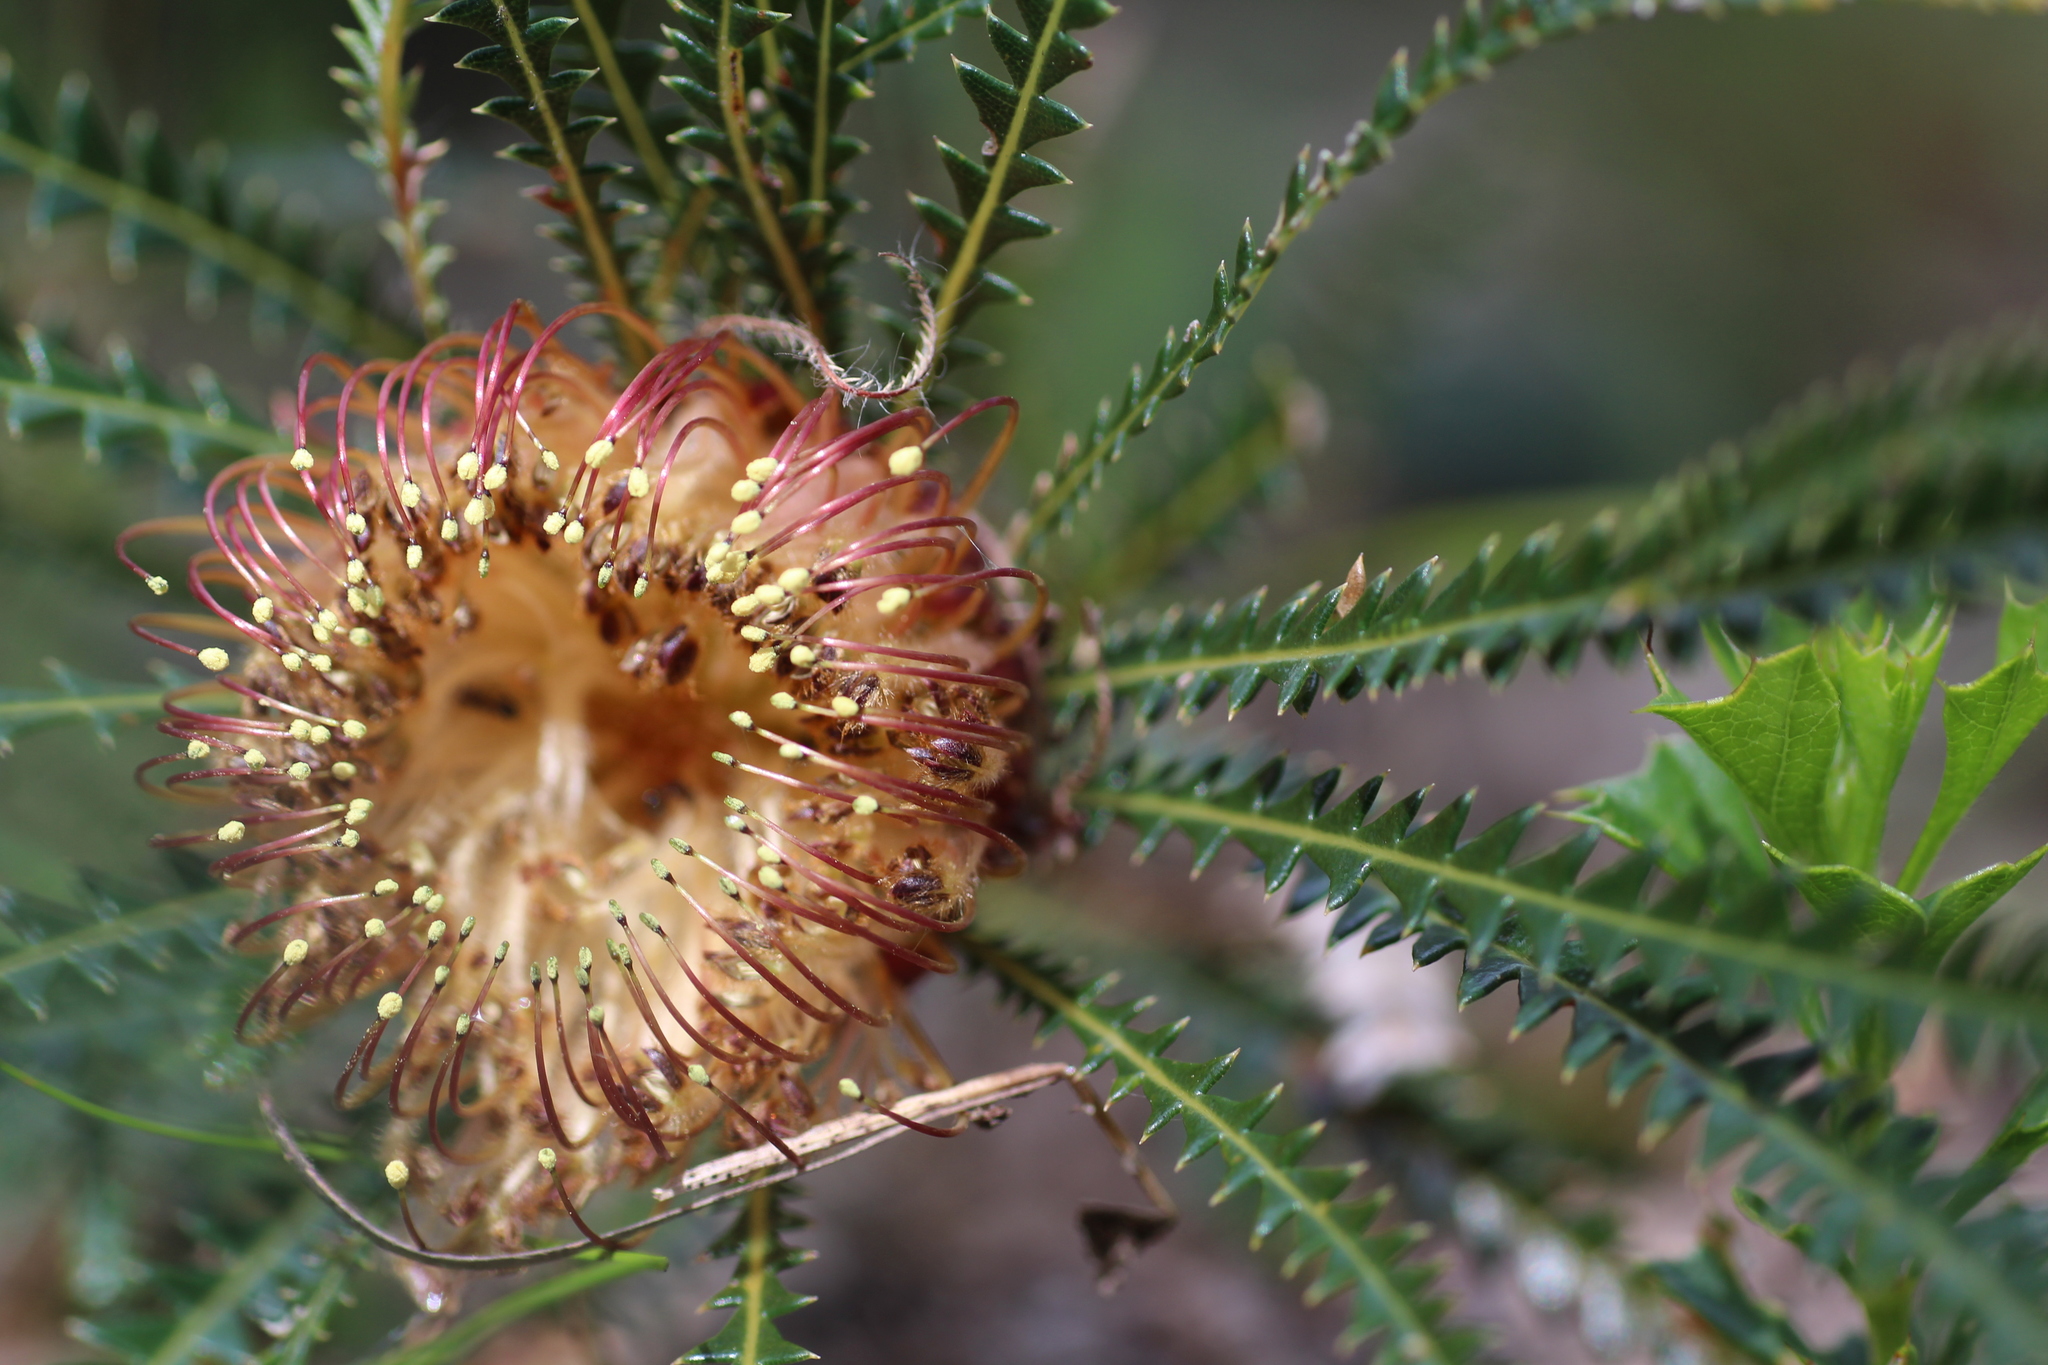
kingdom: Plantae
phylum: Tracheophyta
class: Magnoliopsida
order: Proteales
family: Proteaceae
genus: Banksia
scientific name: Banksia dallanneyi
